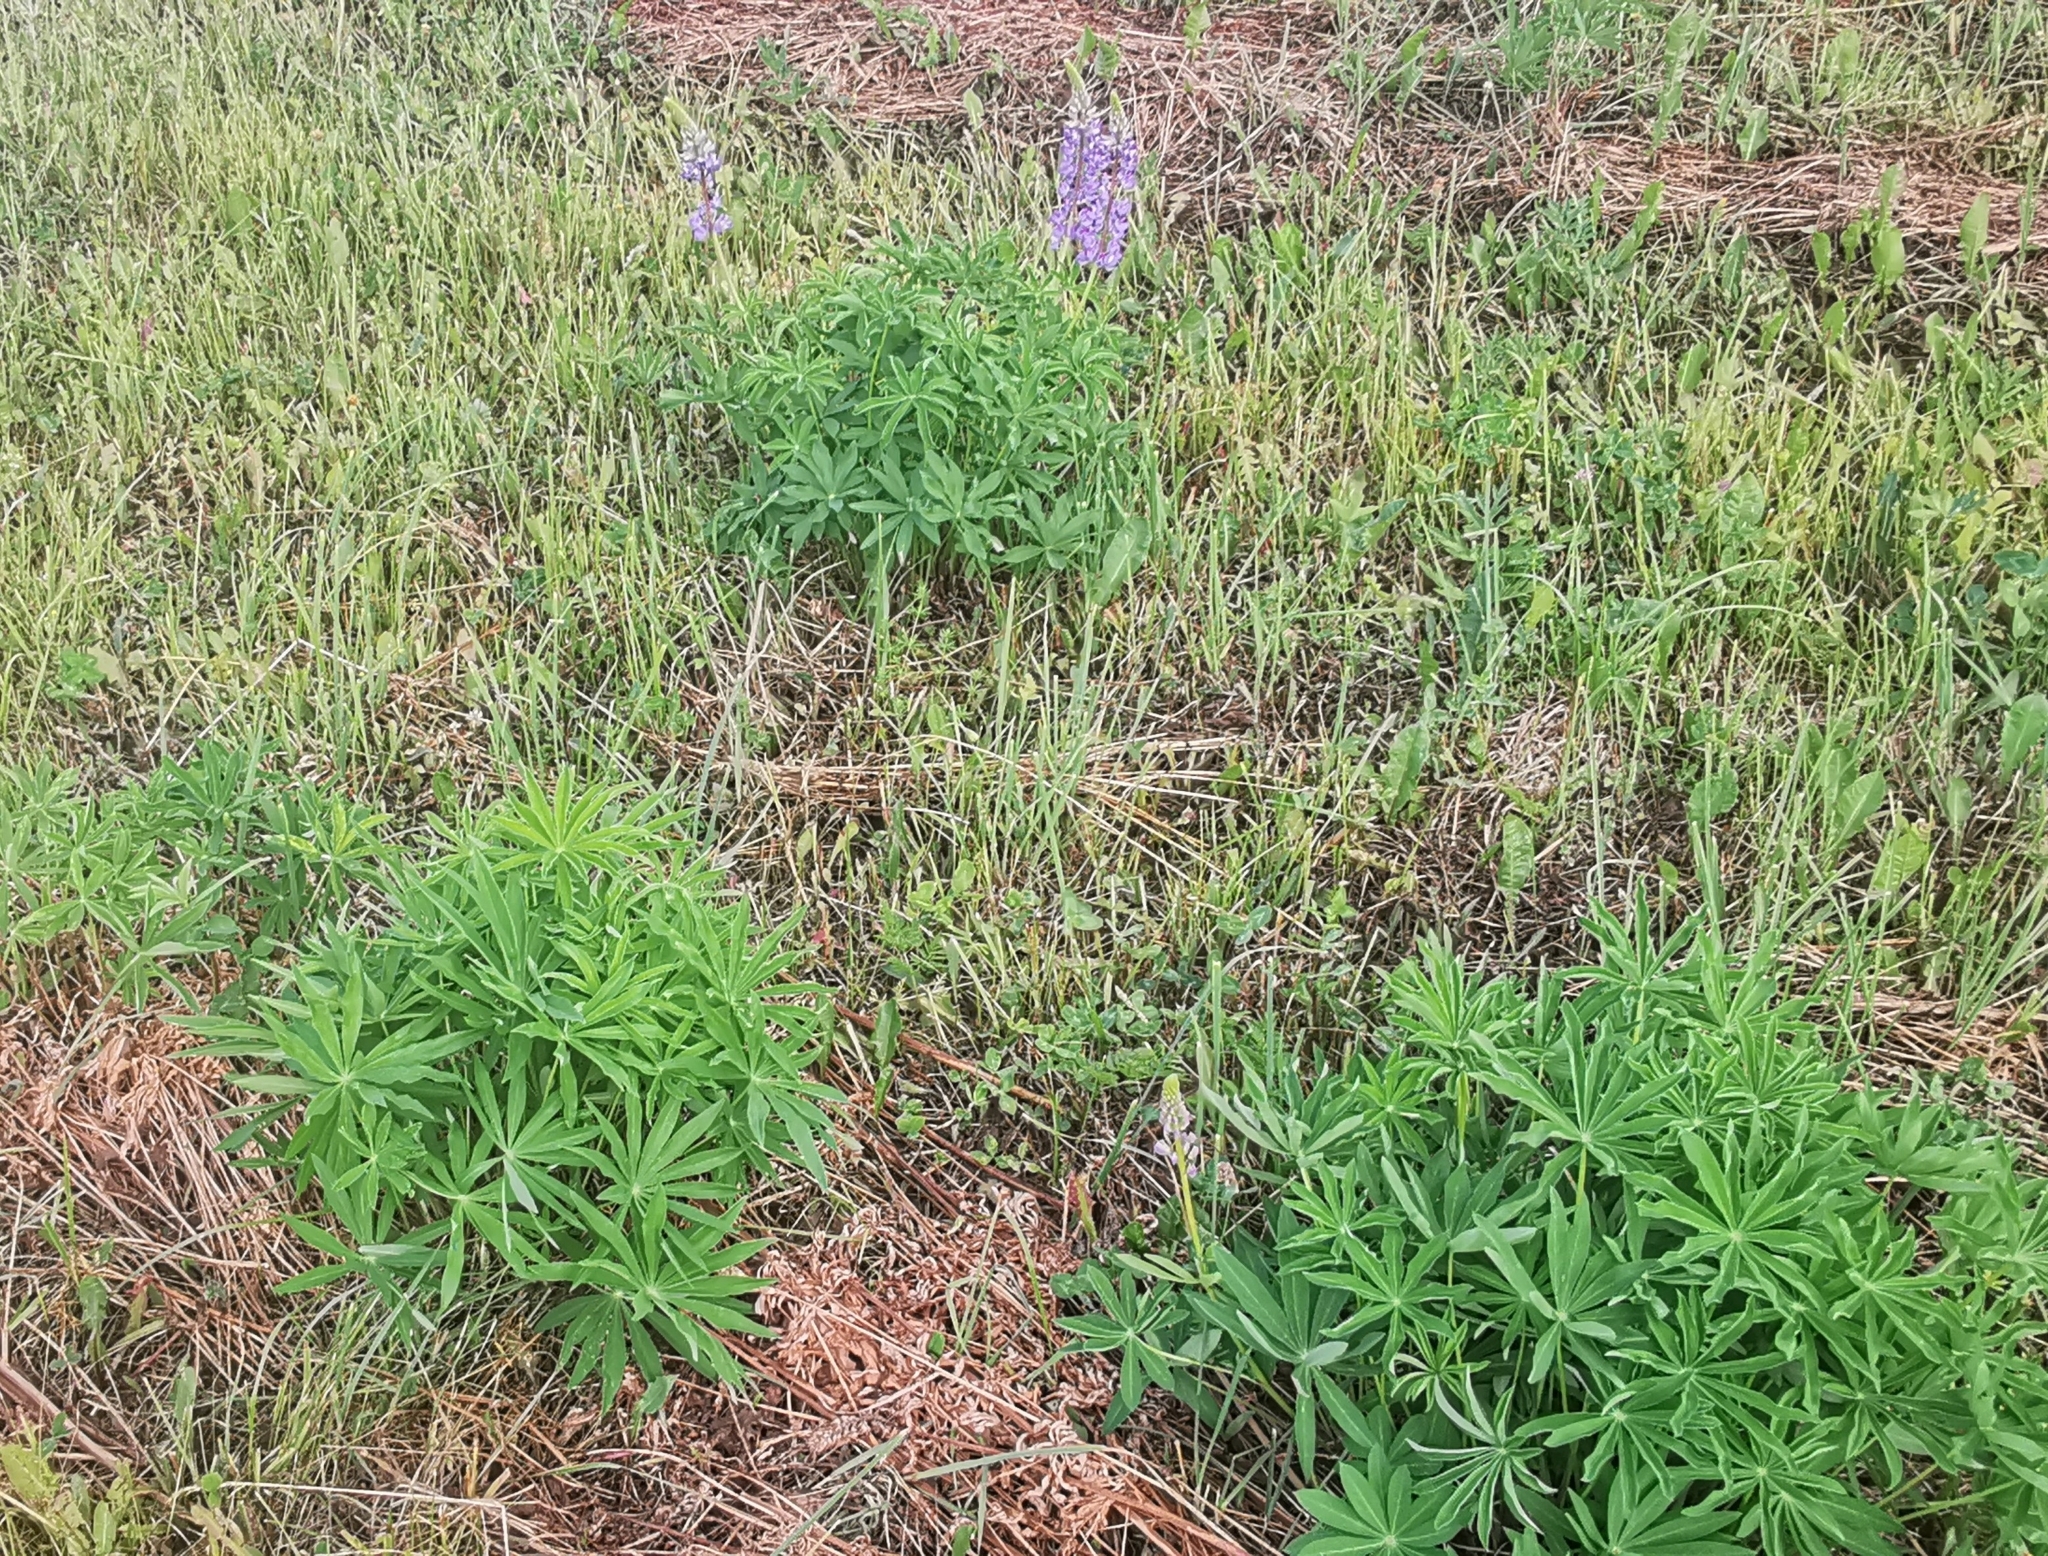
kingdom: Plantae
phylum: Tracheophyta
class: Magnoliopsida
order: Fabales
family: Fabaceae
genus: Lupinus
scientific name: Lupinus polyphyllus
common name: Garden lupin
